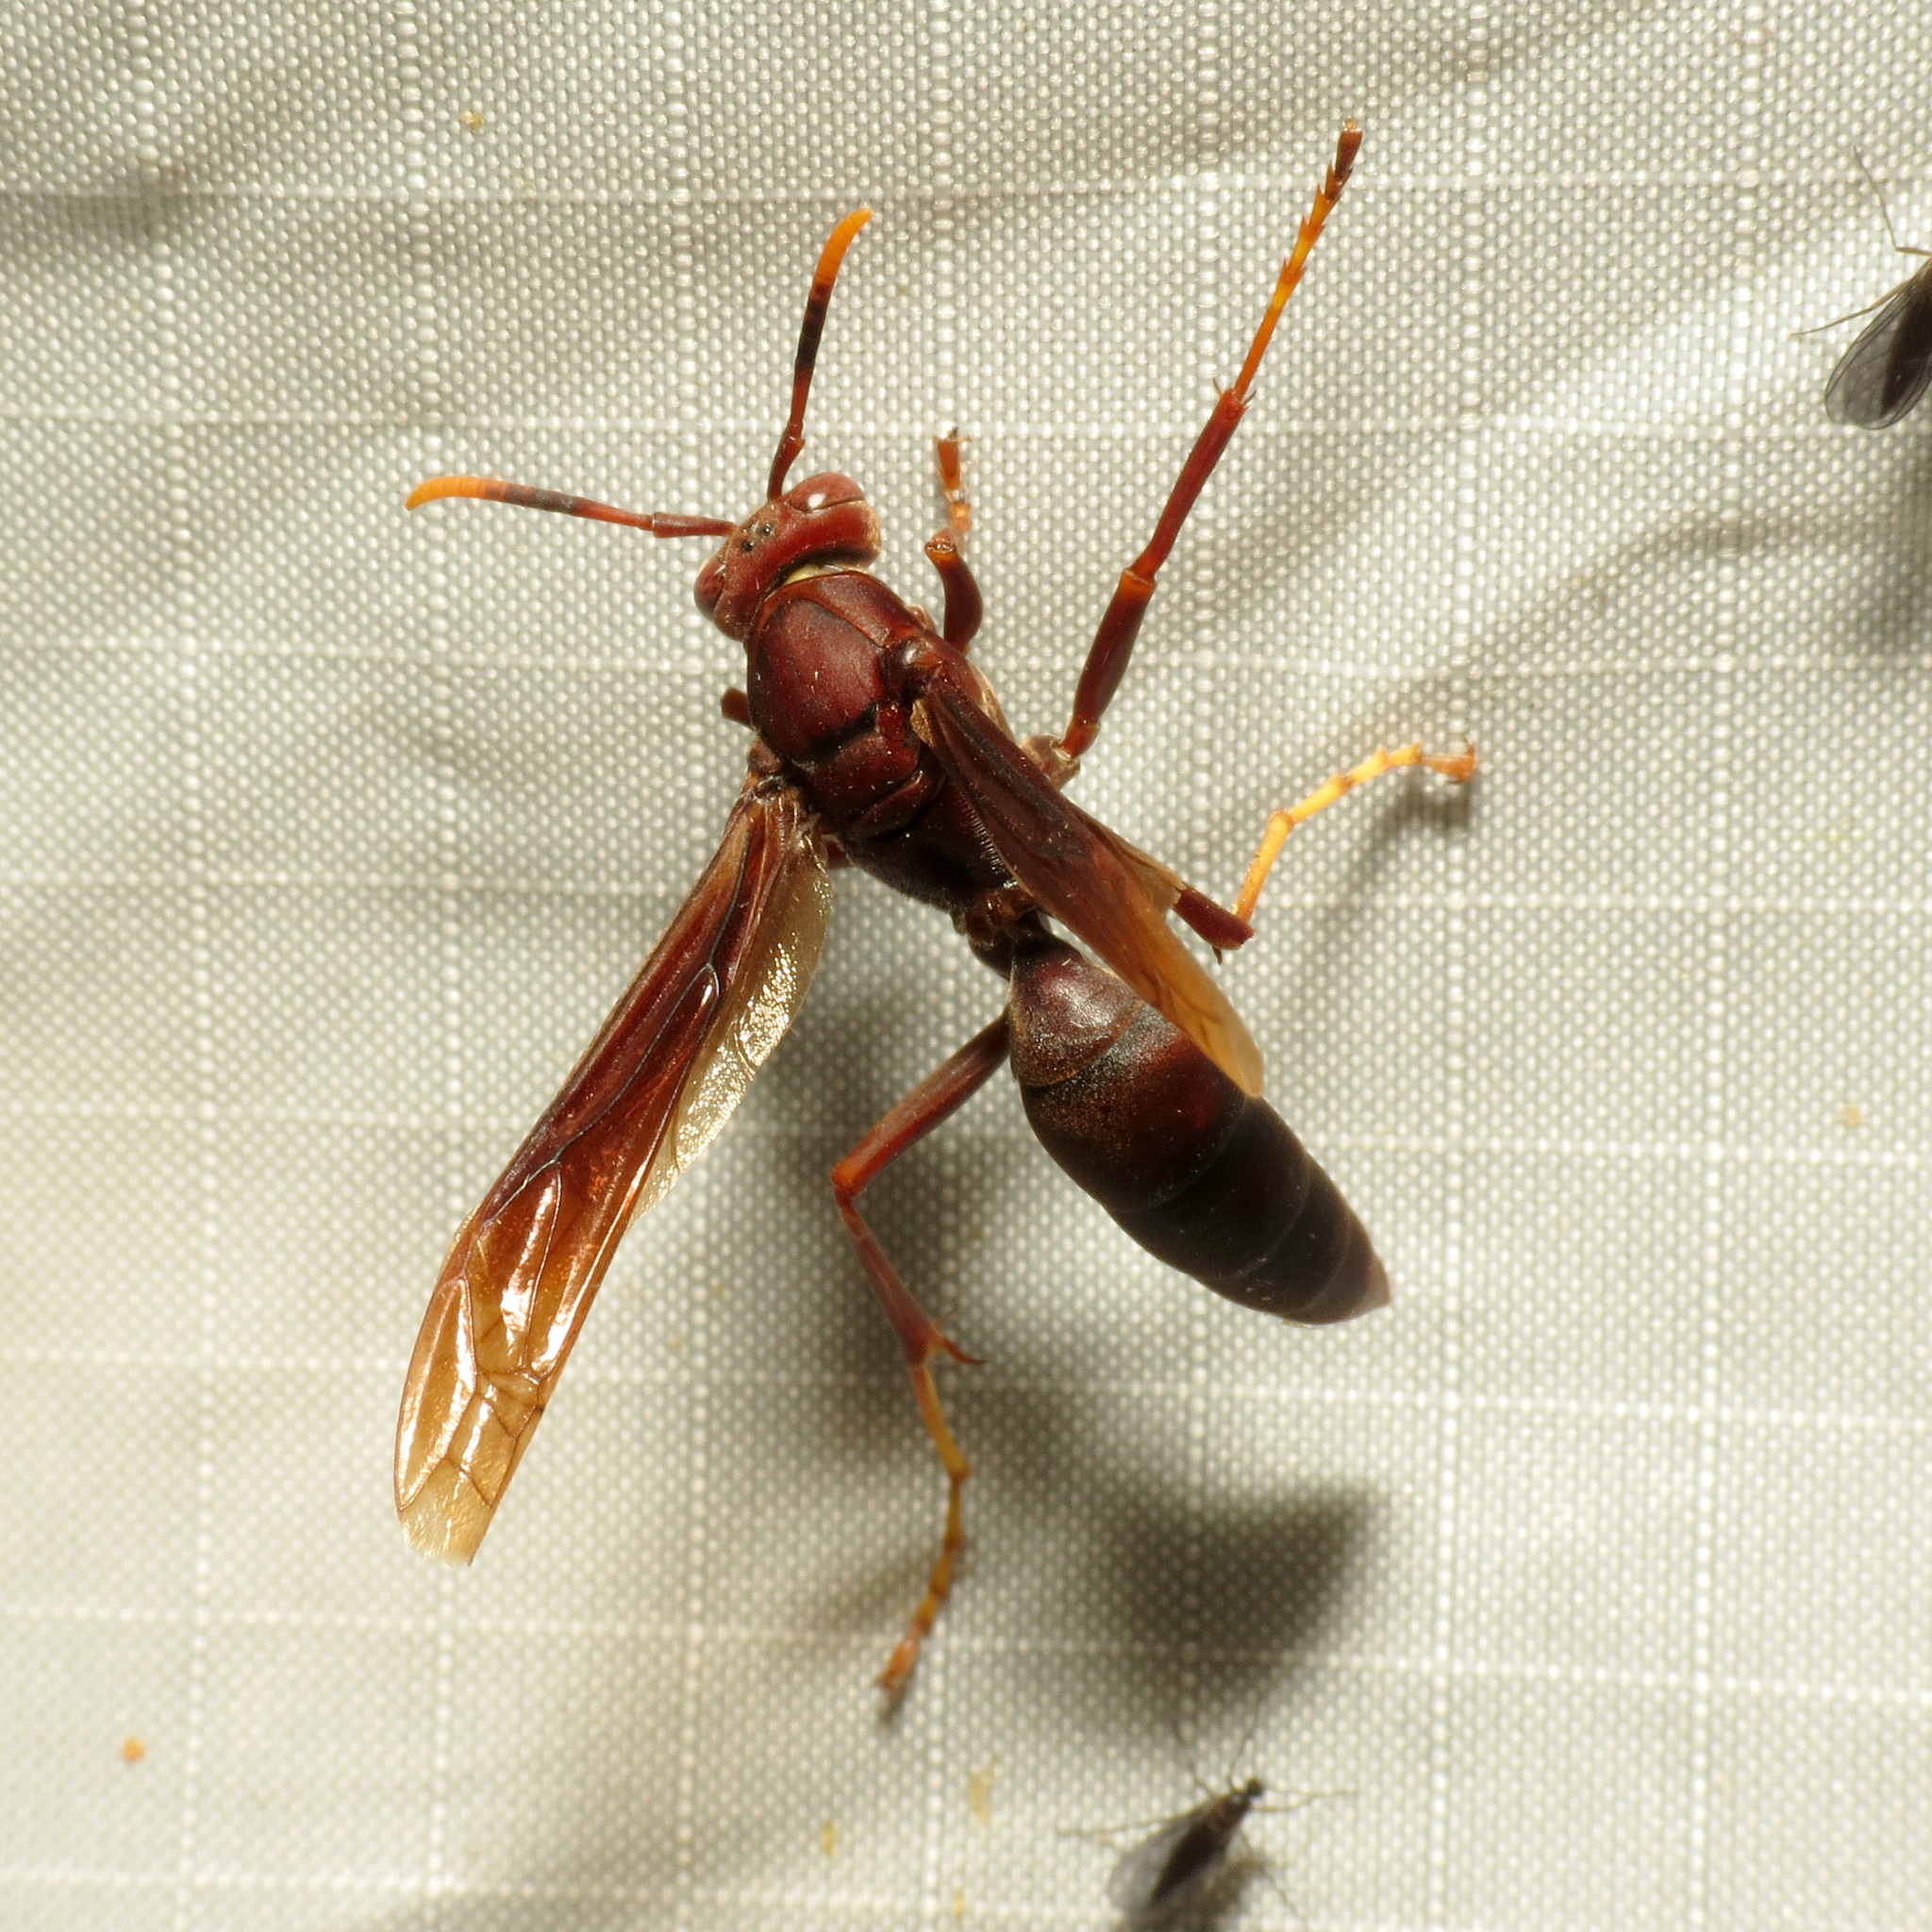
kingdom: Animalia
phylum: Arthropoda
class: Insecta
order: Hymenoptera
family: Eumenidae
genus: Polistes
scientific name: Polistes major
